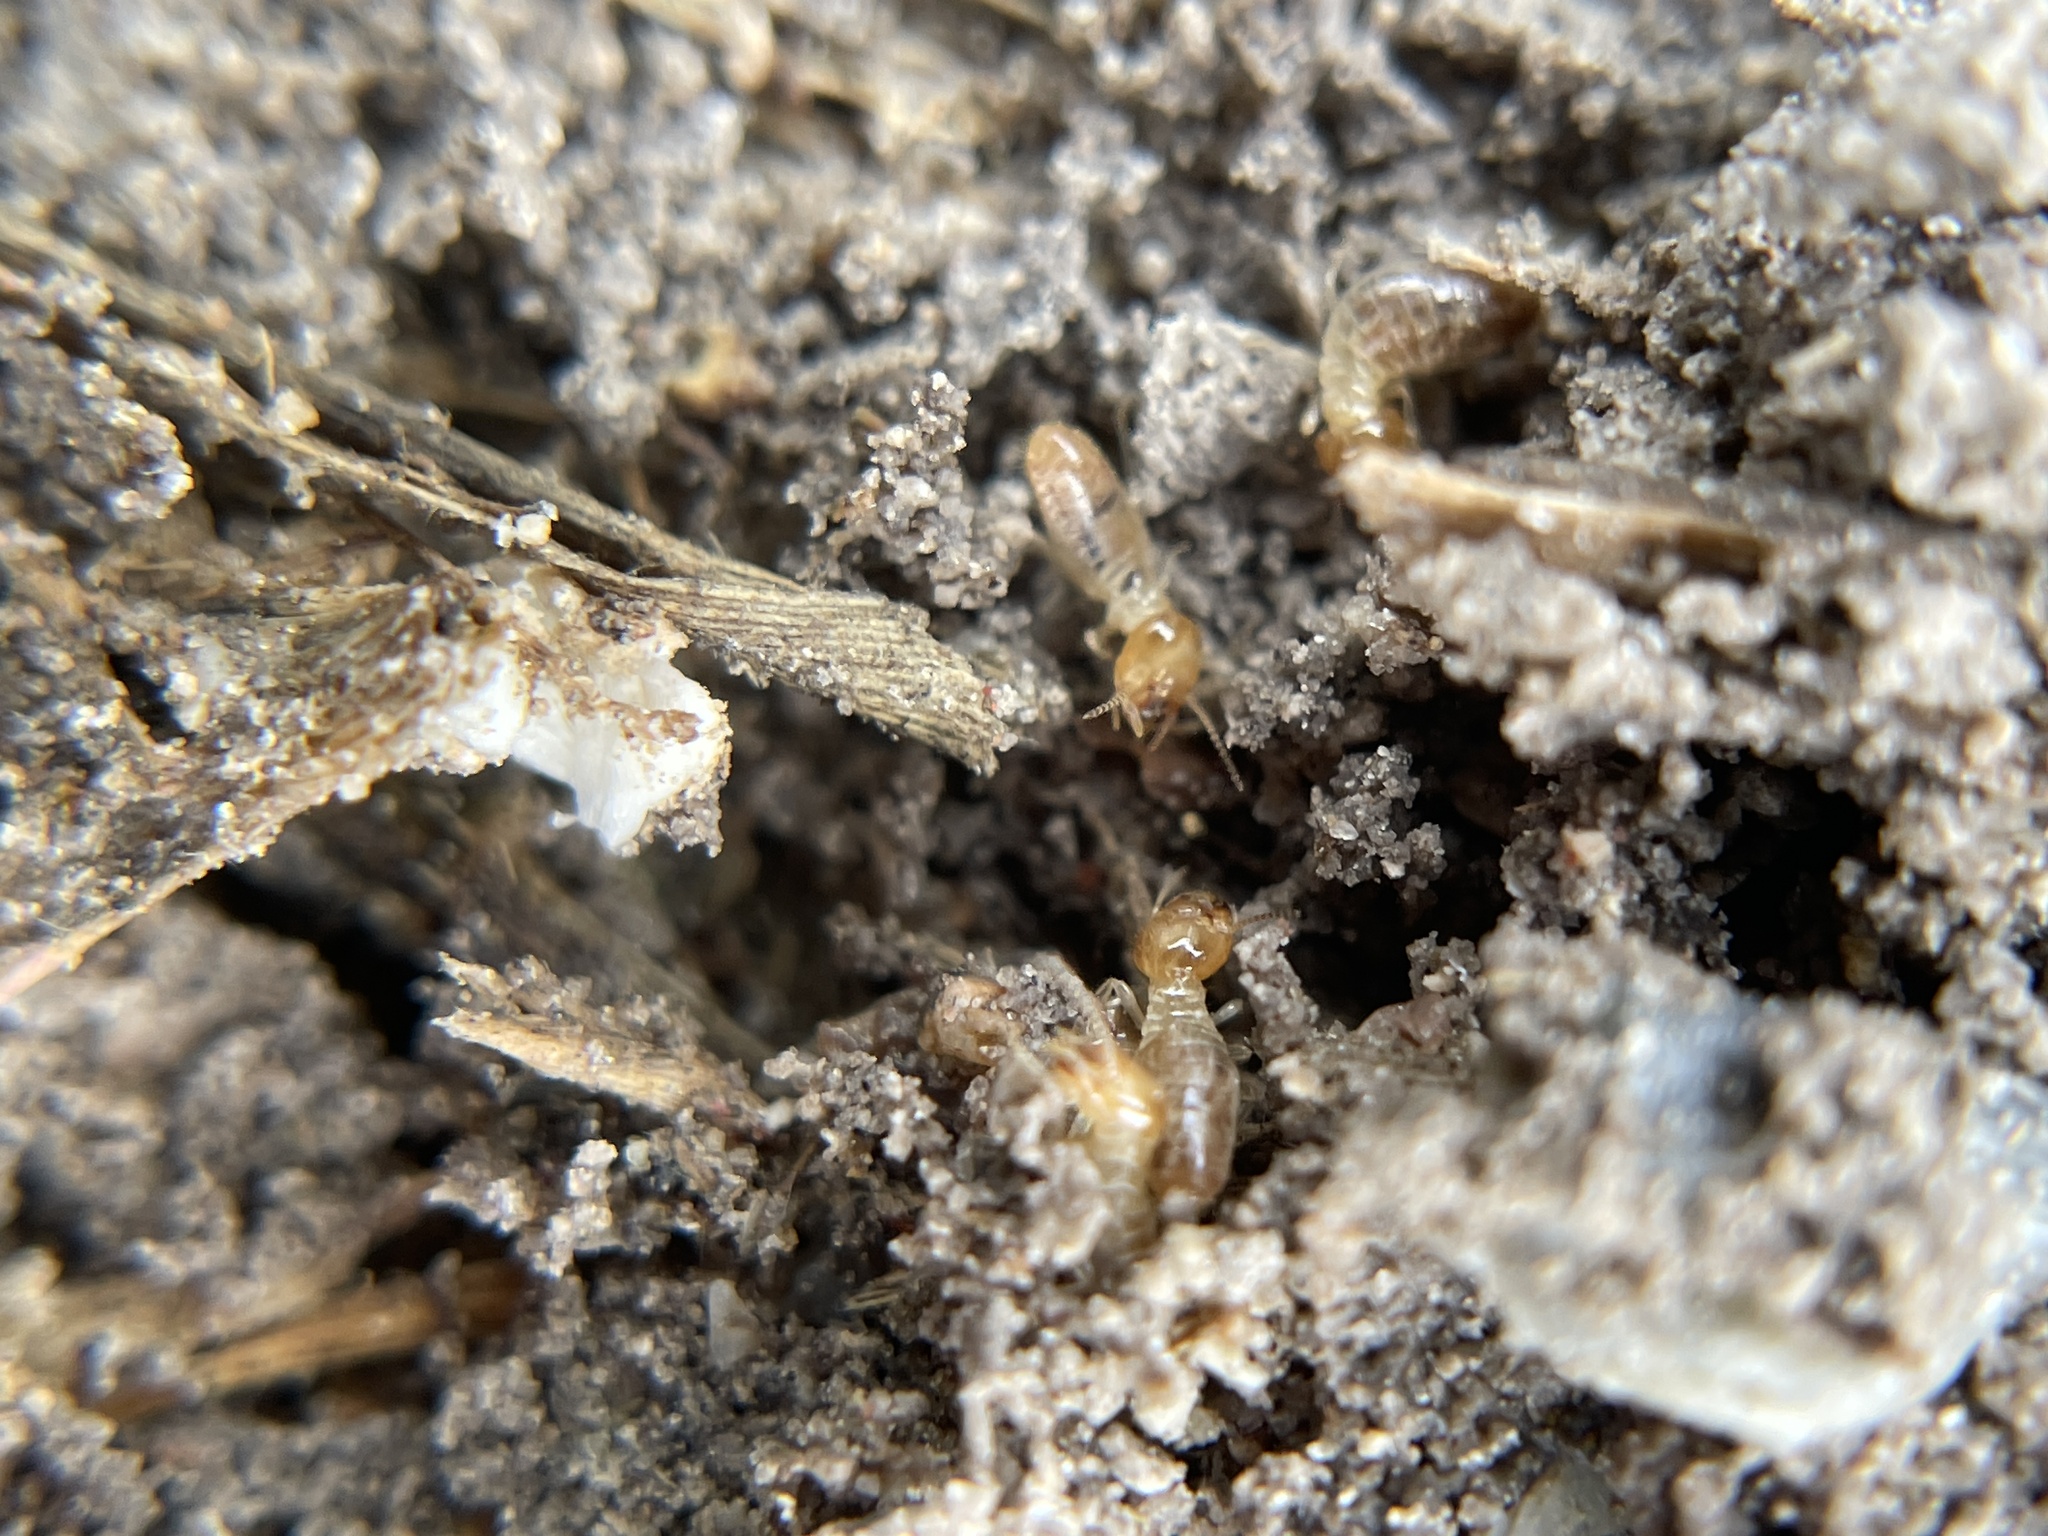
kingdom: Animalia
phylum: Arthropoda
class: Insecta
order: Blattodea
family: Termitidae
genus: Gnathamitermes
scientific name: Gnathamitermes
